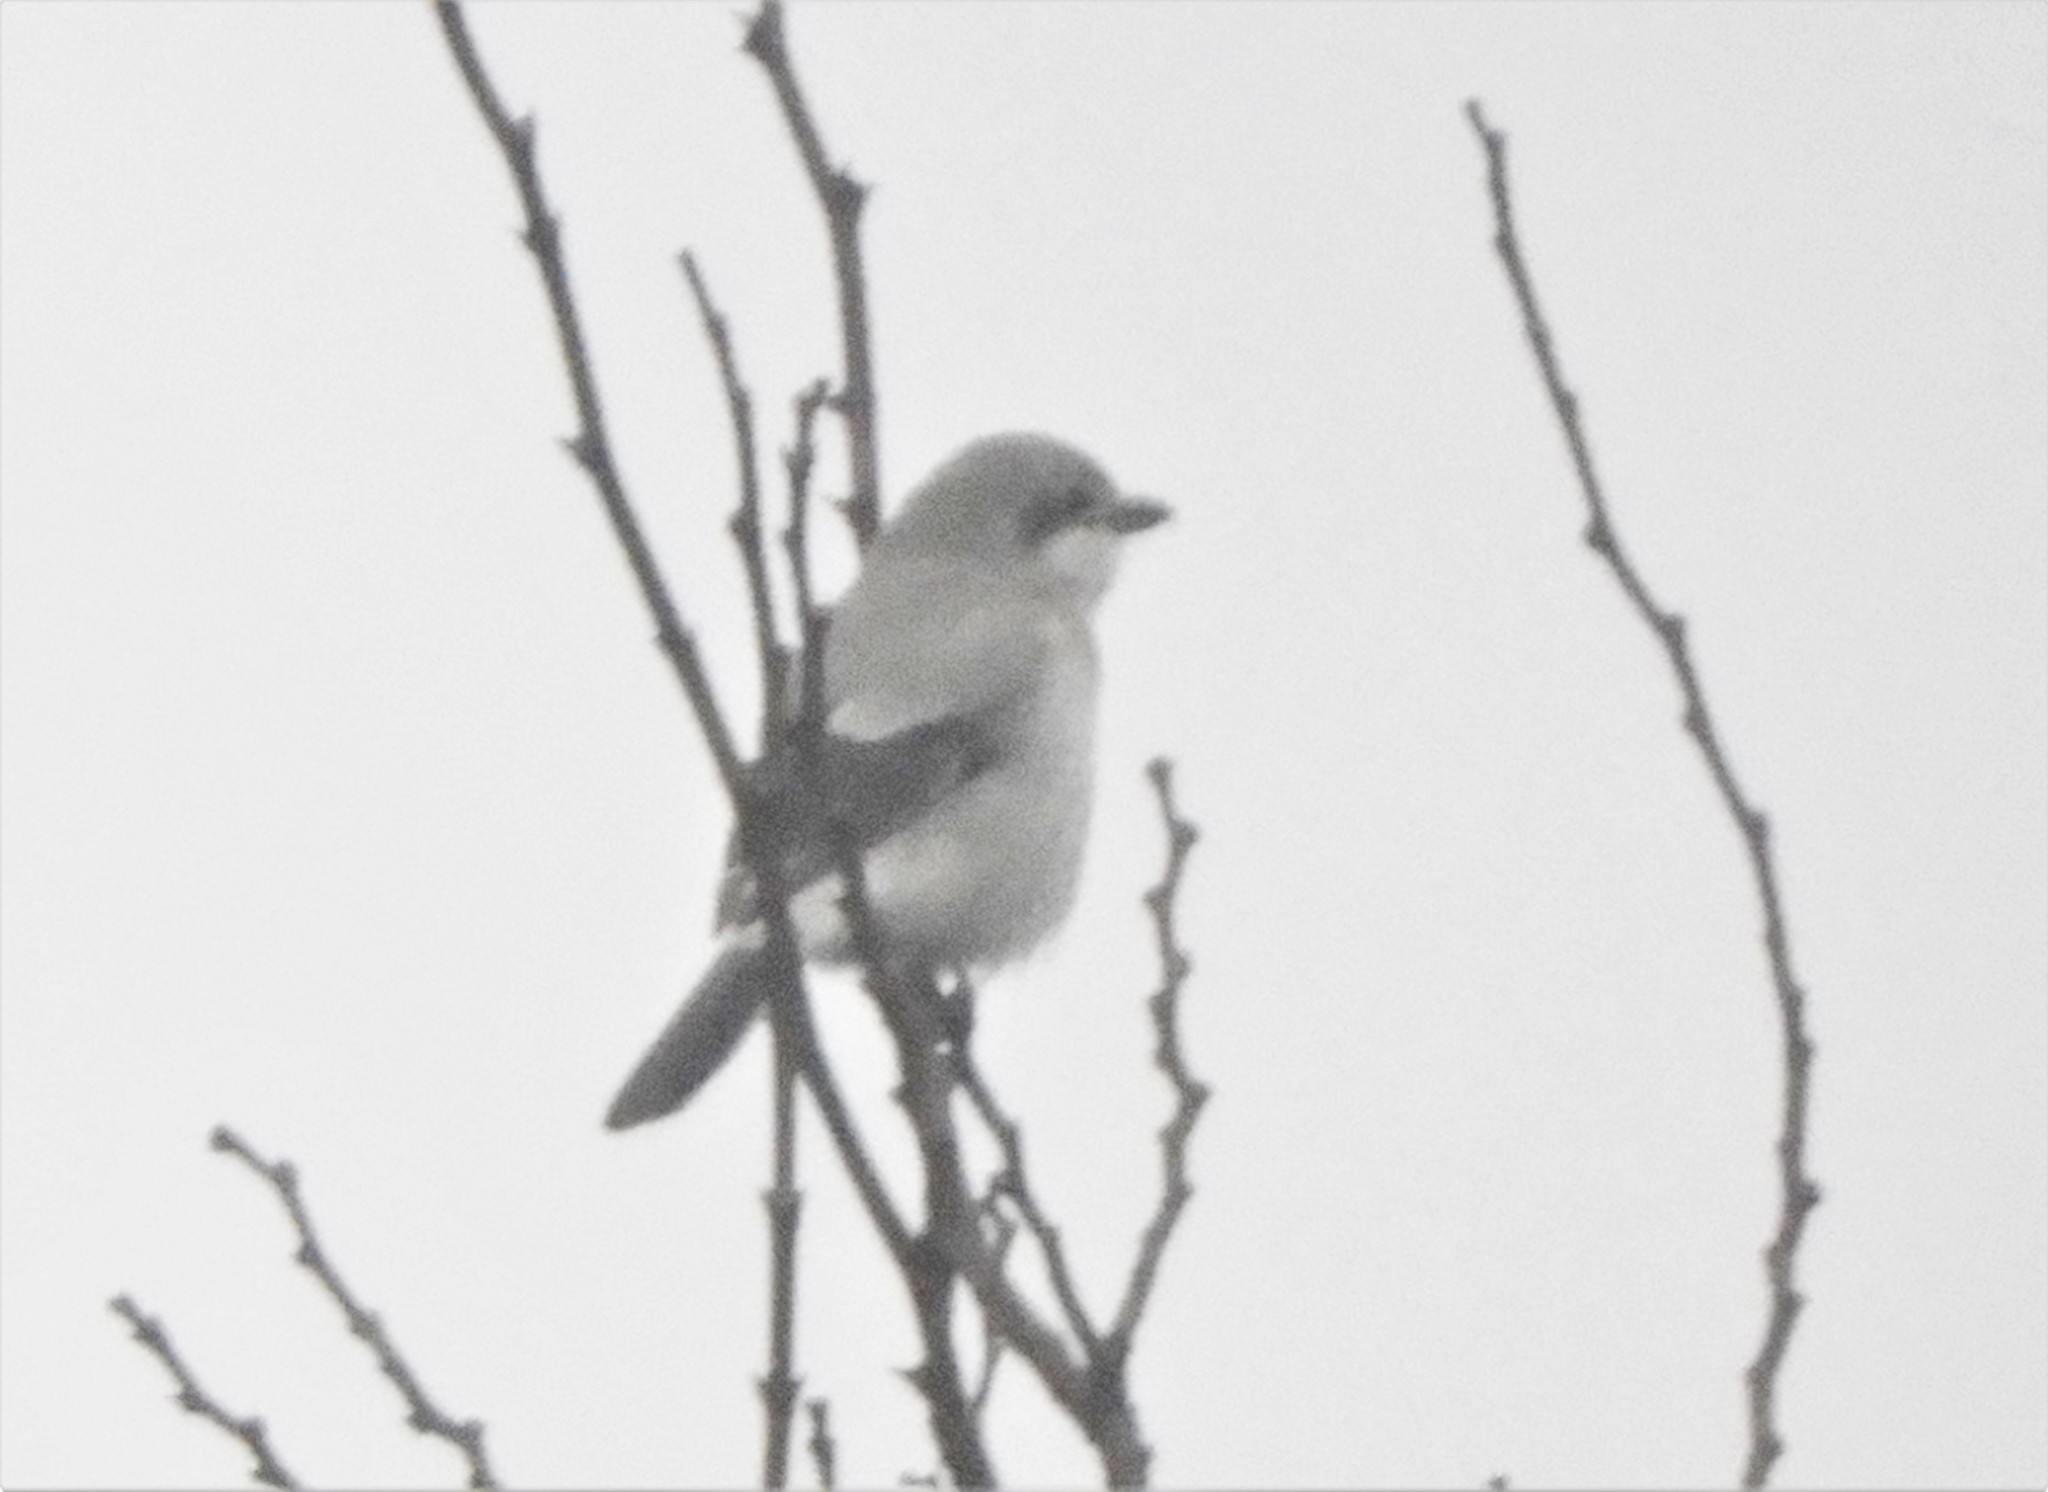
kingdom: Animalia
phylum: Chordata
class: Aves
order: Passeriformes
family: Laniidae
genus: Lanius
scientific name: Lanius borealis
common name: Northern shrike
